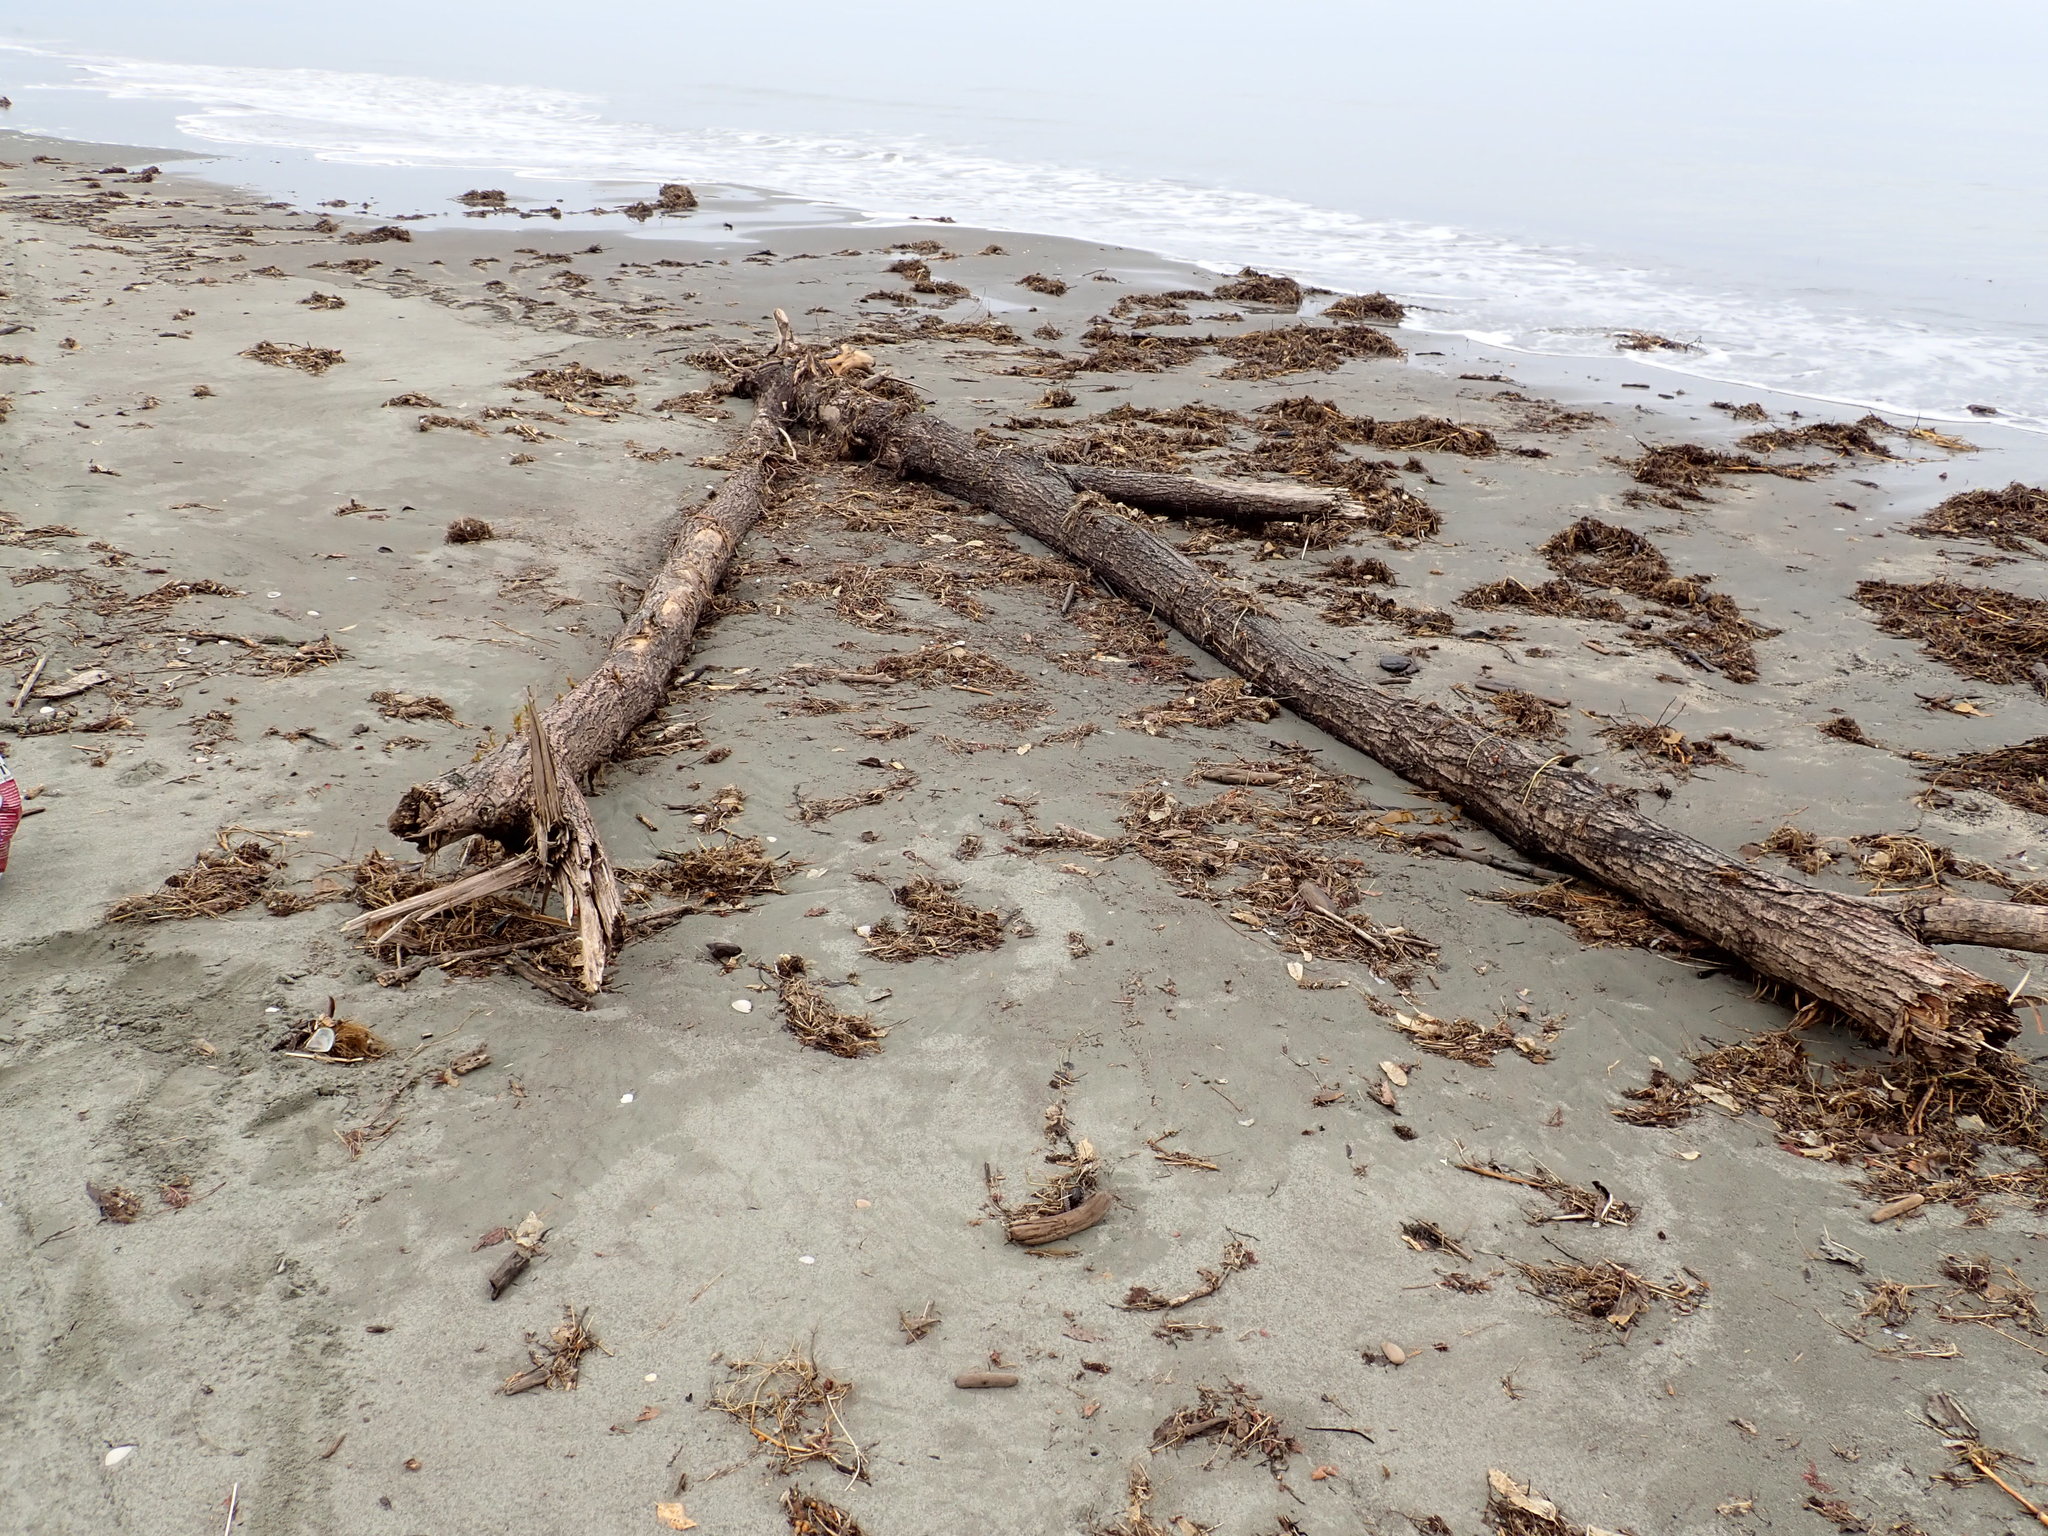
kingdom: Plantae
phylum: Tracheophyta
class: Magnoliopsida
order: Malpighiales
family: Salicaceae
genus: Salix
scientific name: Salix fragilis
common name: Crack willow
